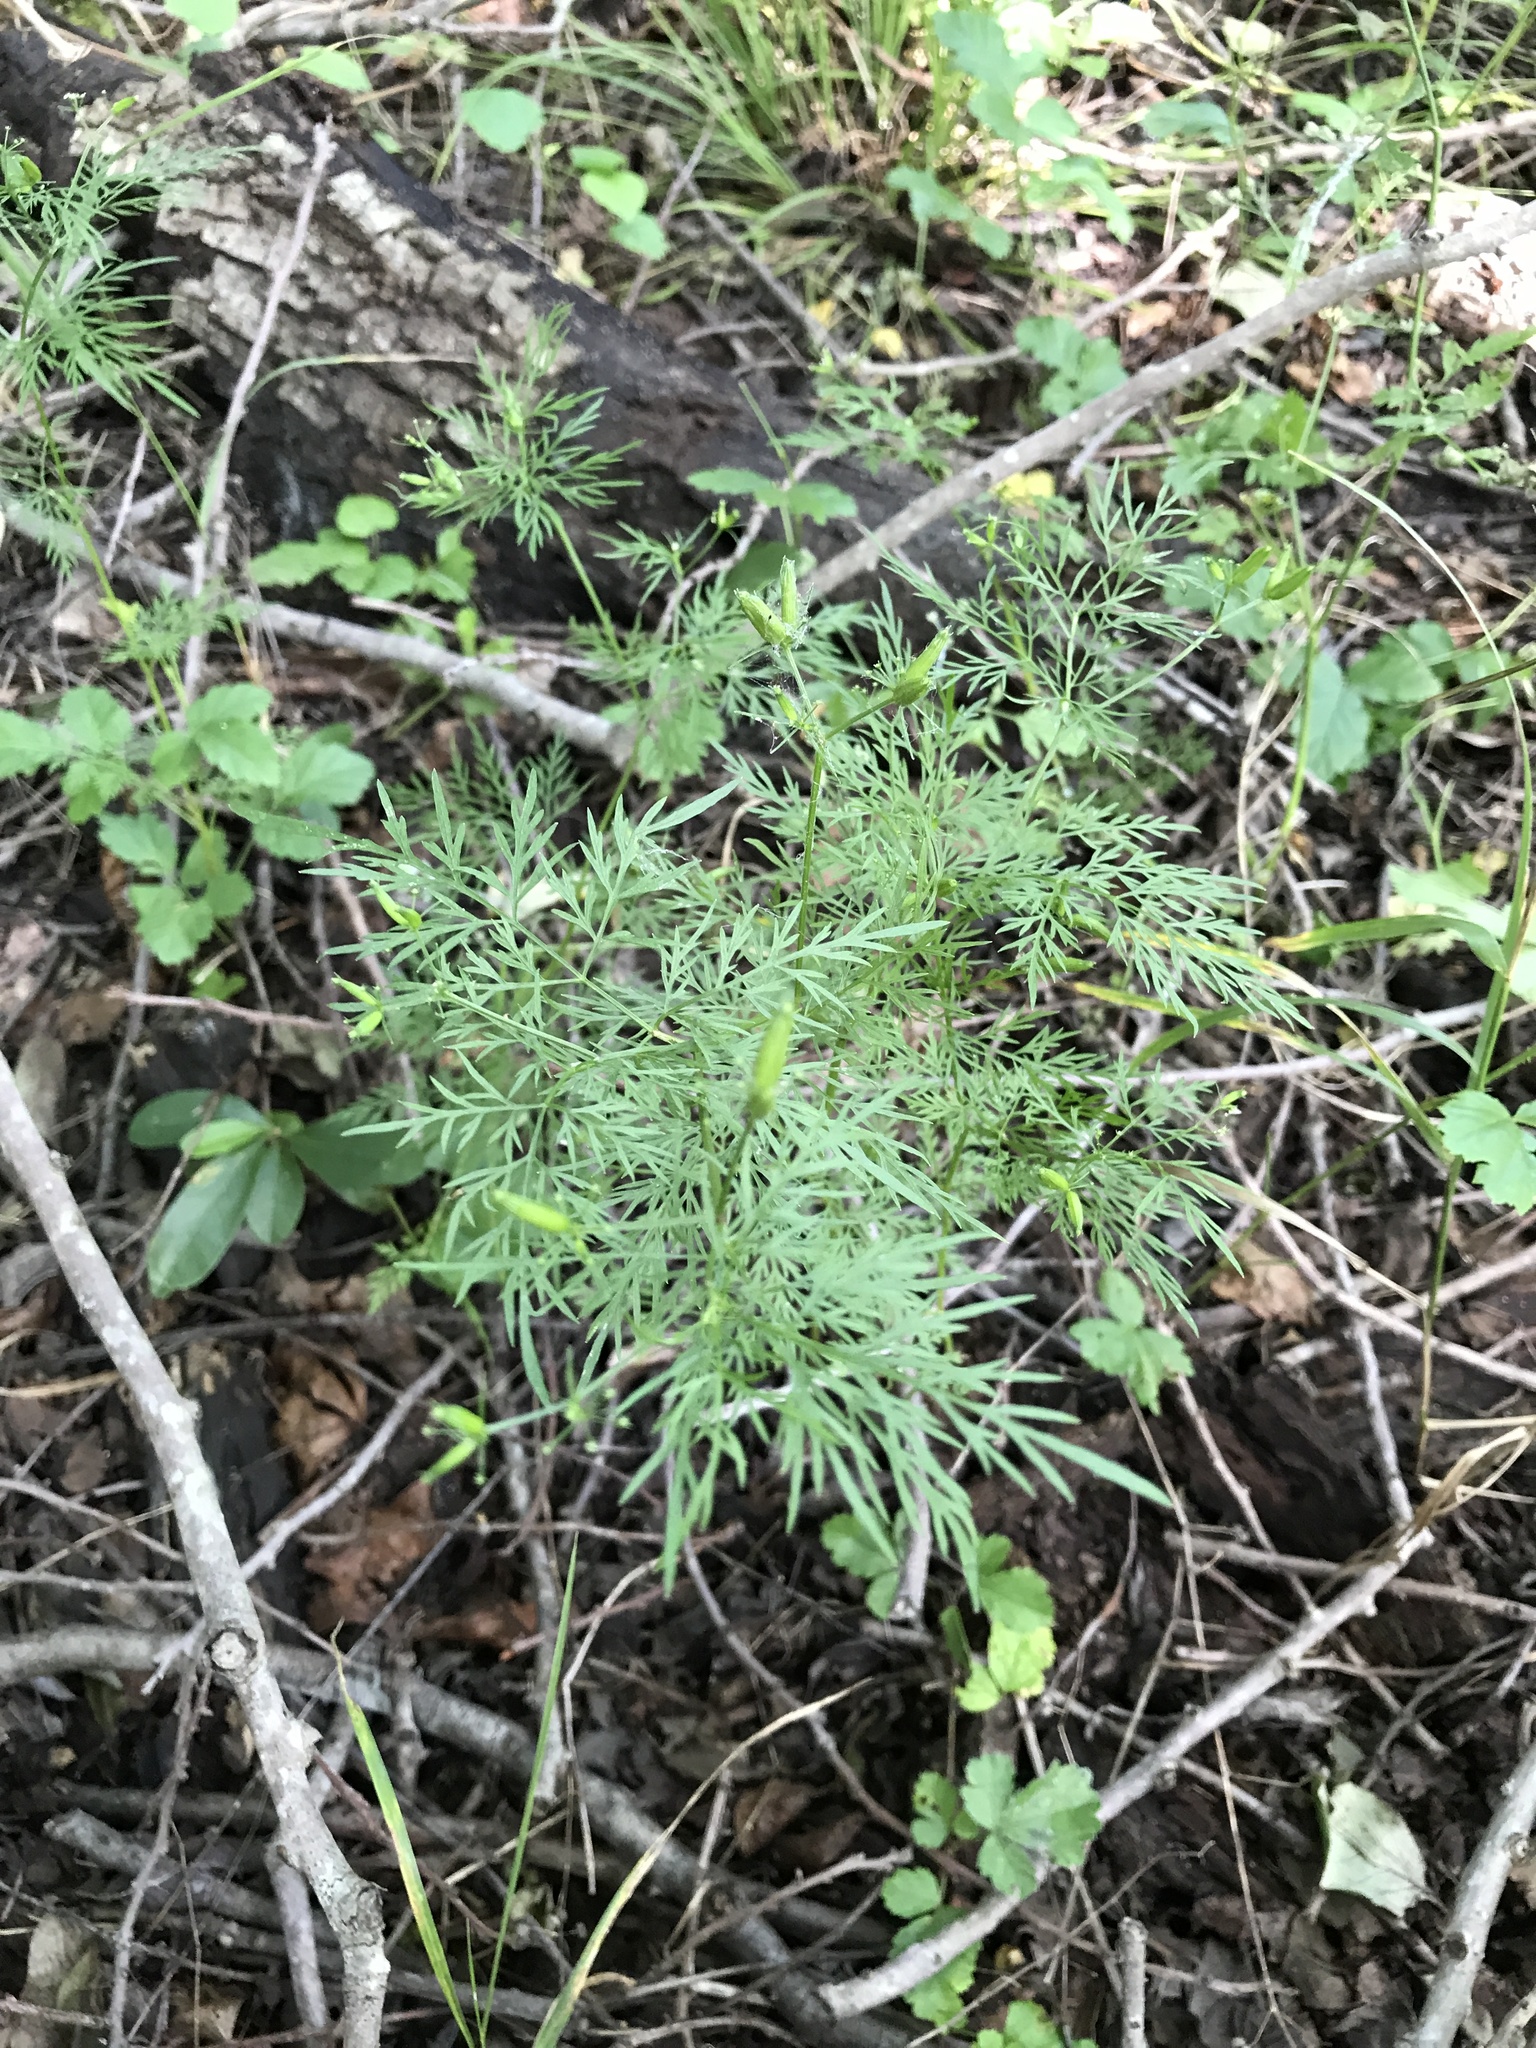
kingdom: Plantae
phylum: Tracheophyta
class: Magnoliopsida
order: Apiales
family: Apiaceae
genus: Trepocarpus
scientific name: Trepocarpus aethusae
